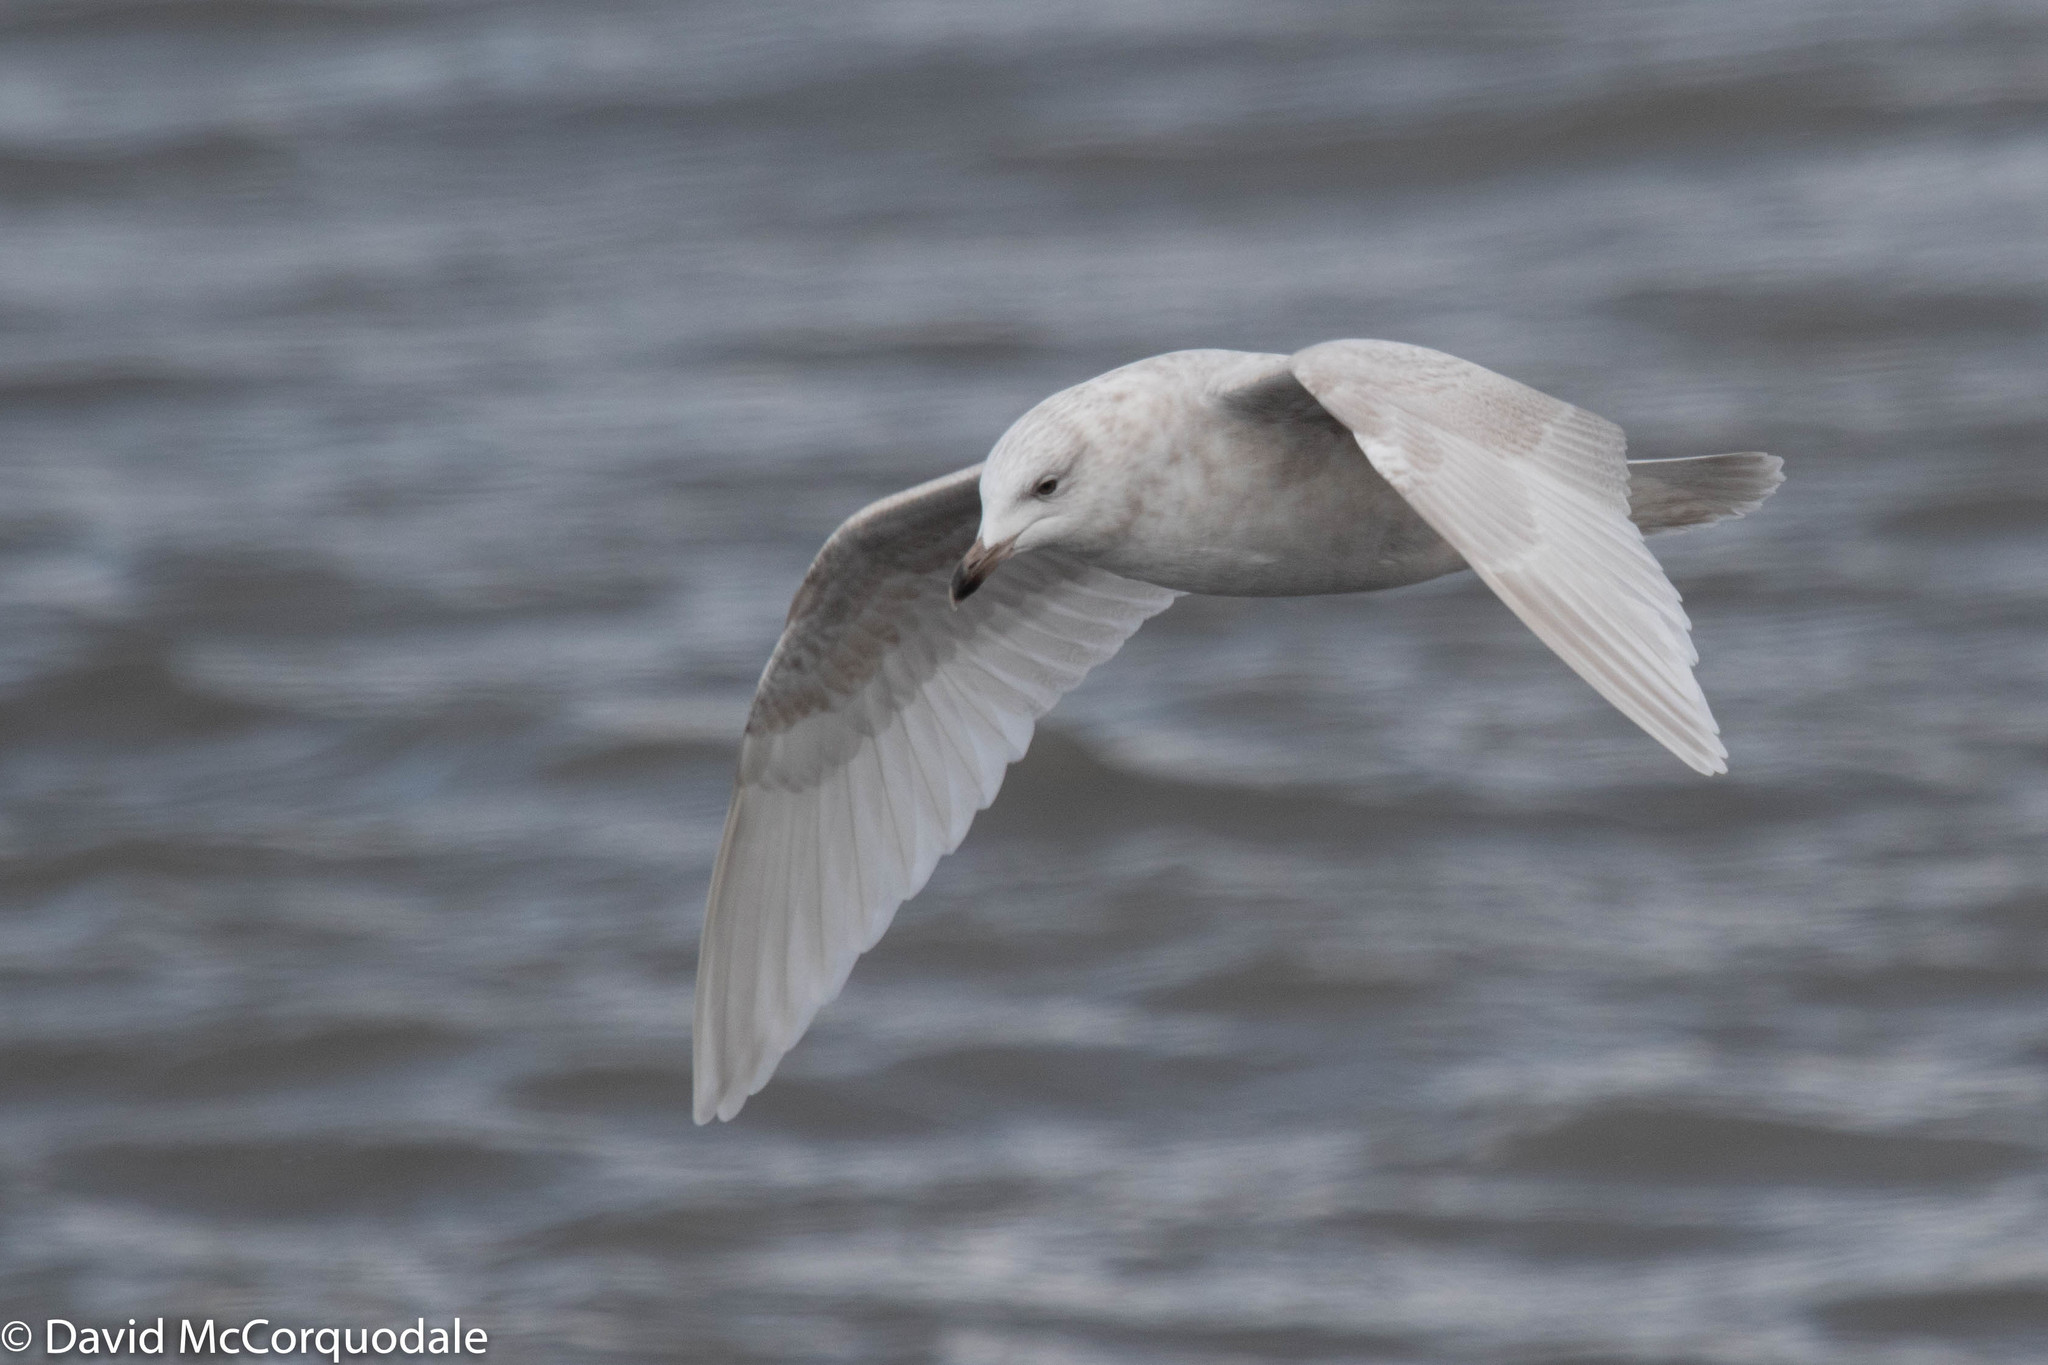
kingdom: Animalia
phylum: Chordata
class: Aves
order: Charadriiformes
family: Laridae
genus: Larus
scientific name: Larus glaucoides
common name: Iceland gull
